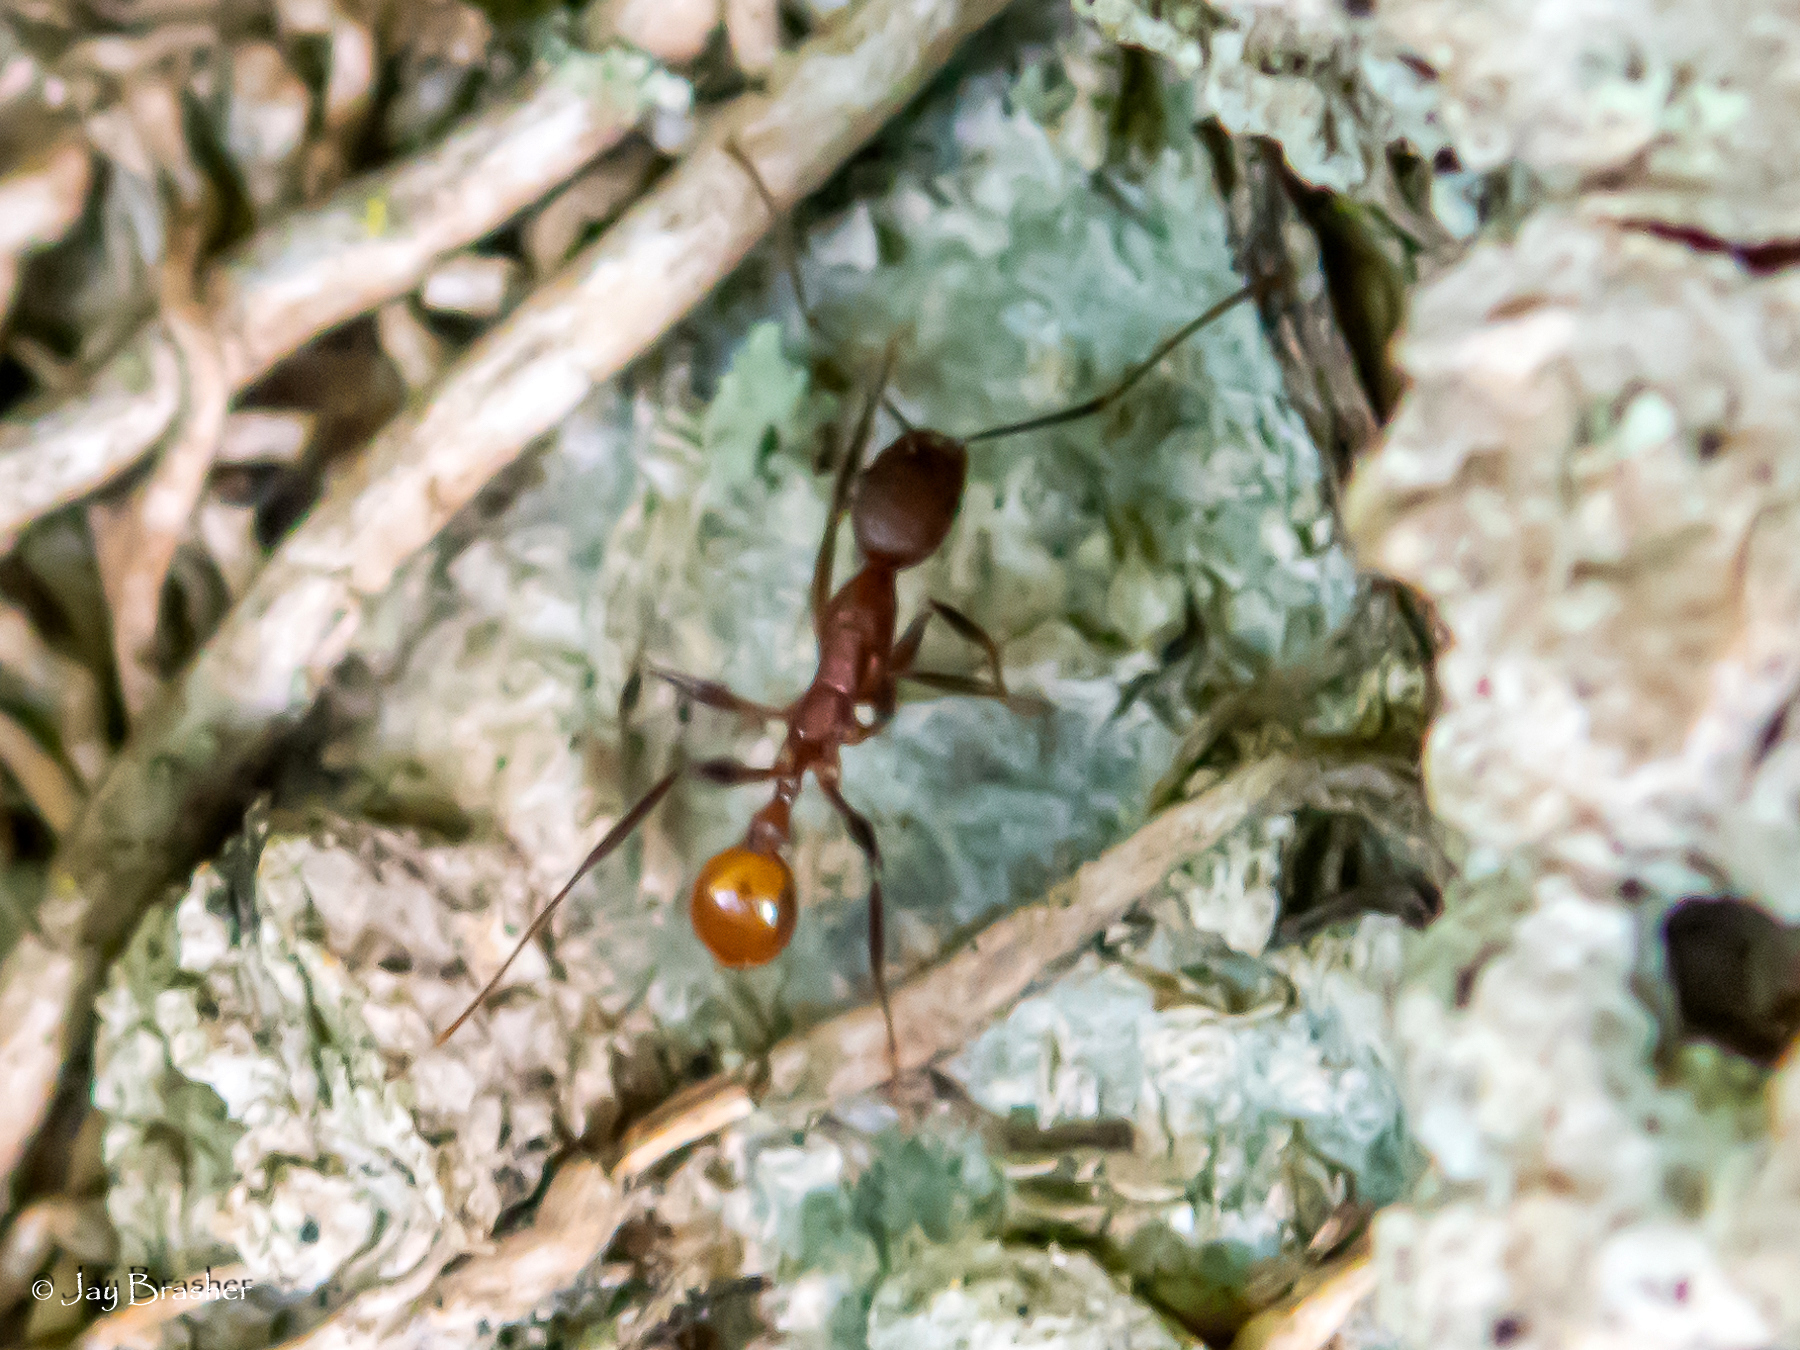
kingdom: Animalia
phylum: Arthropoda
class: Insecta
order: Hymenoptera
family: Formicidae
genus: Aphaenogaster
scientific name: Aphaenogaster lamellidens
